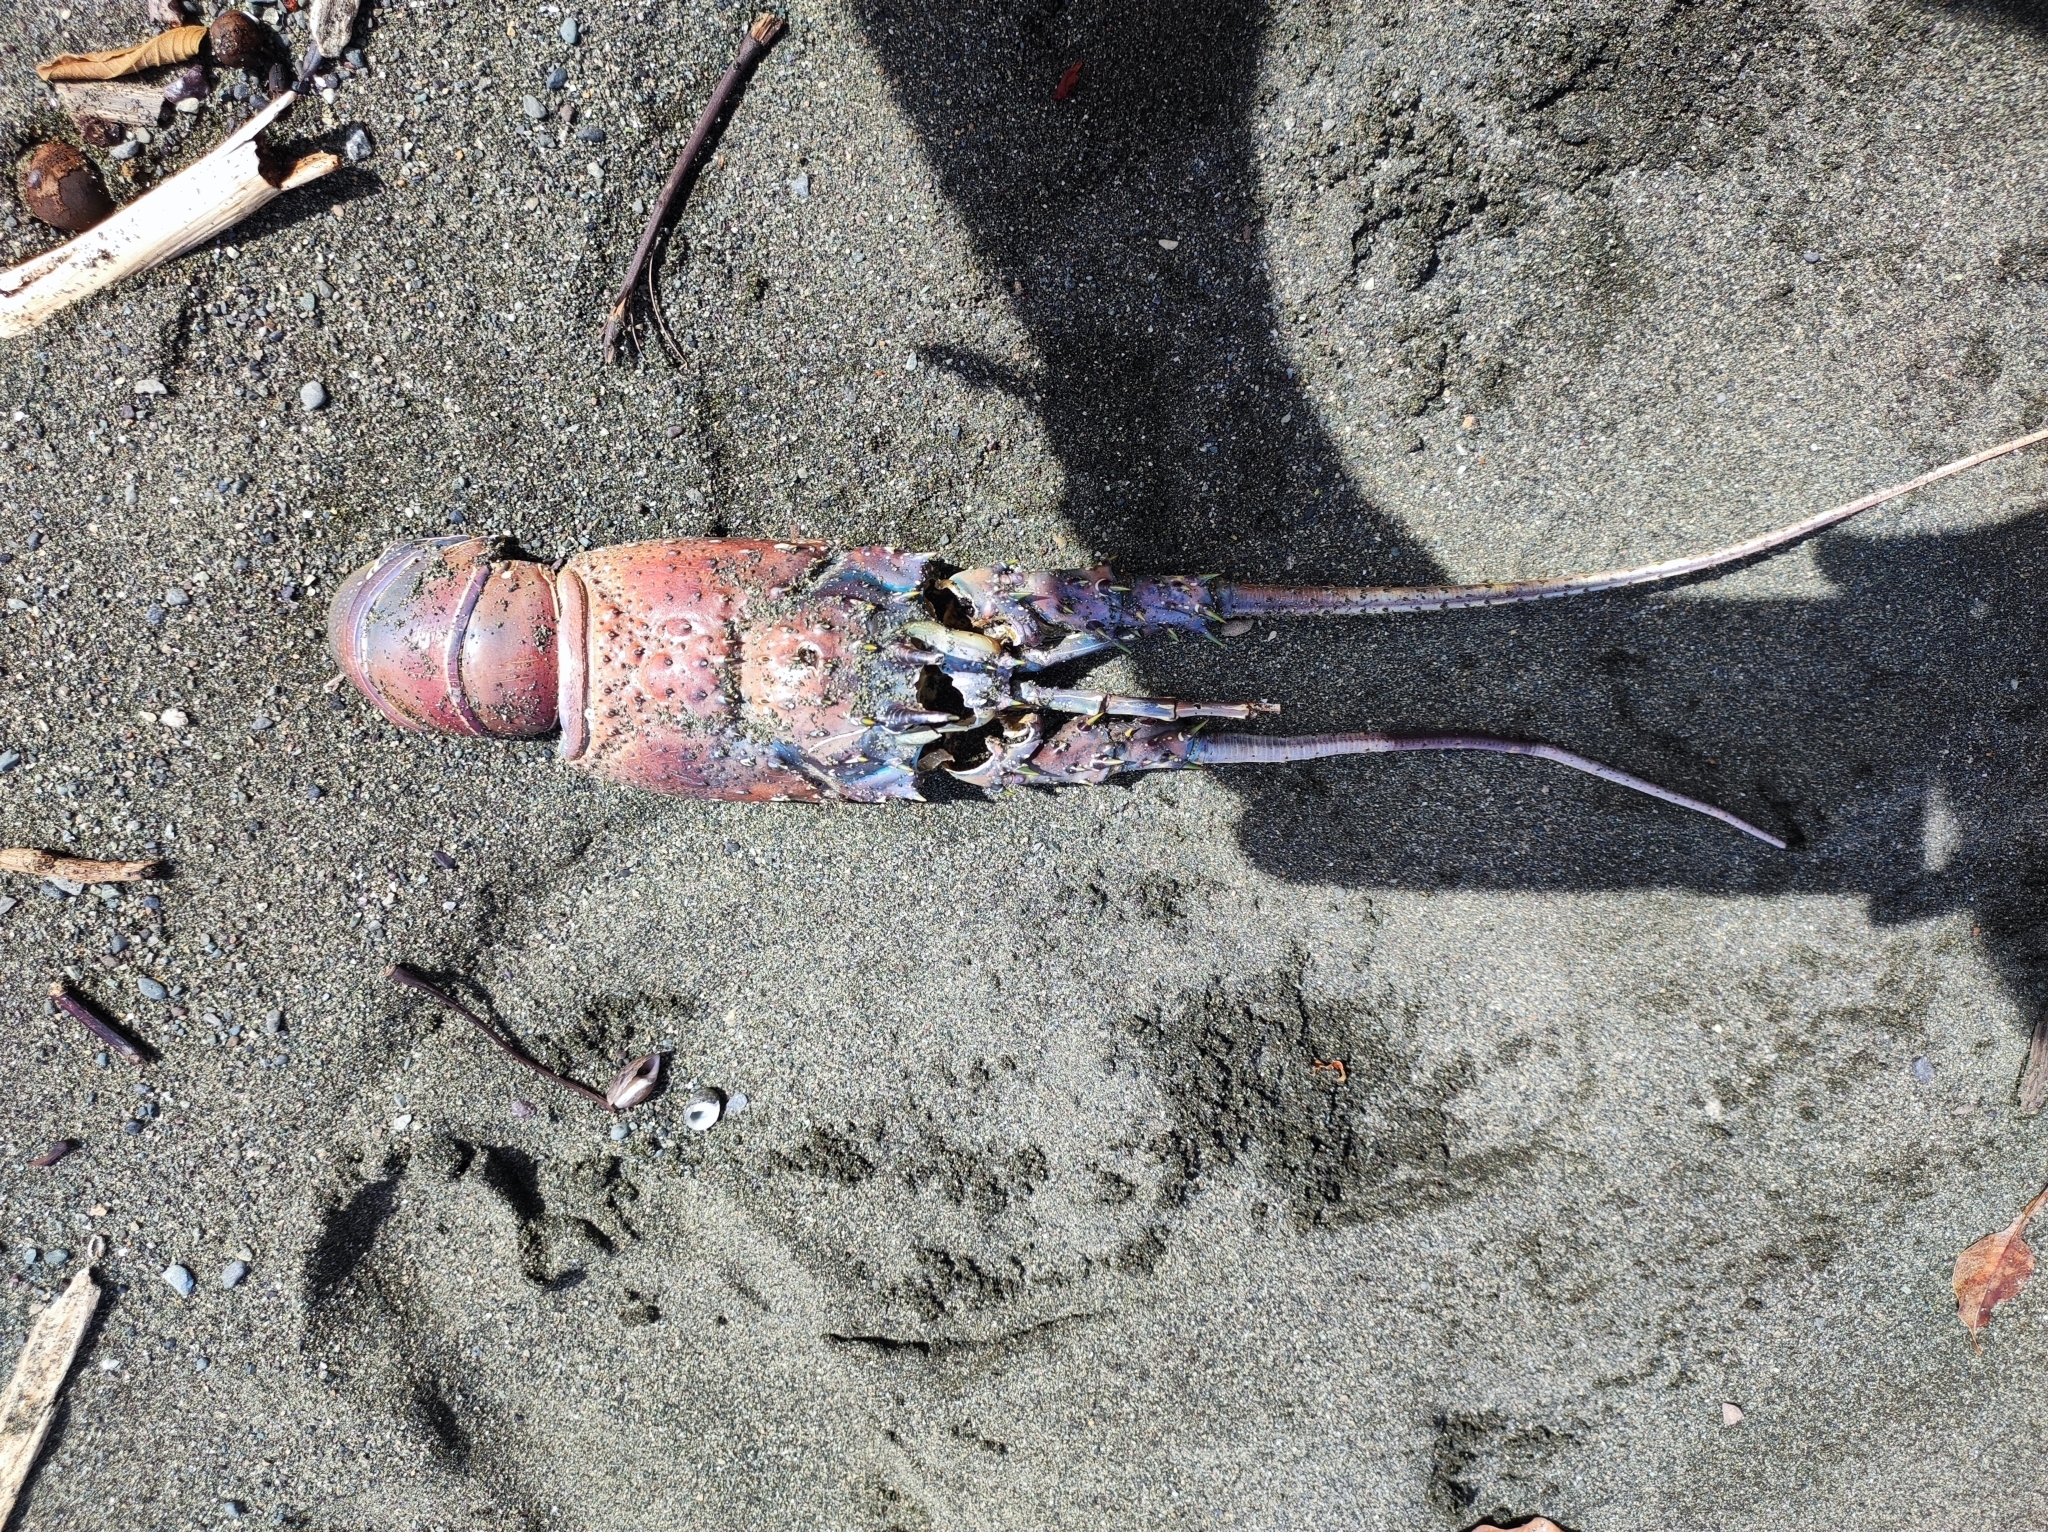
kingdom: Animalia
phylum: Arthropoda
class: Malacostraca
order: Decapoda
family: Palinuridae
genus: Panulirus
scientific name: Panulirus gracilis
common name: Green spiny lobster
